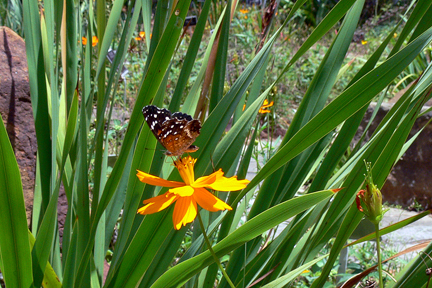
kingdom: Animalia
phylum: Arthropoda
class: Insecta
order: Lepidoptera
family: Nymphalidae
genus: Anthanassa
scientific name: Anthanassa texana
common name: Texan crescent
